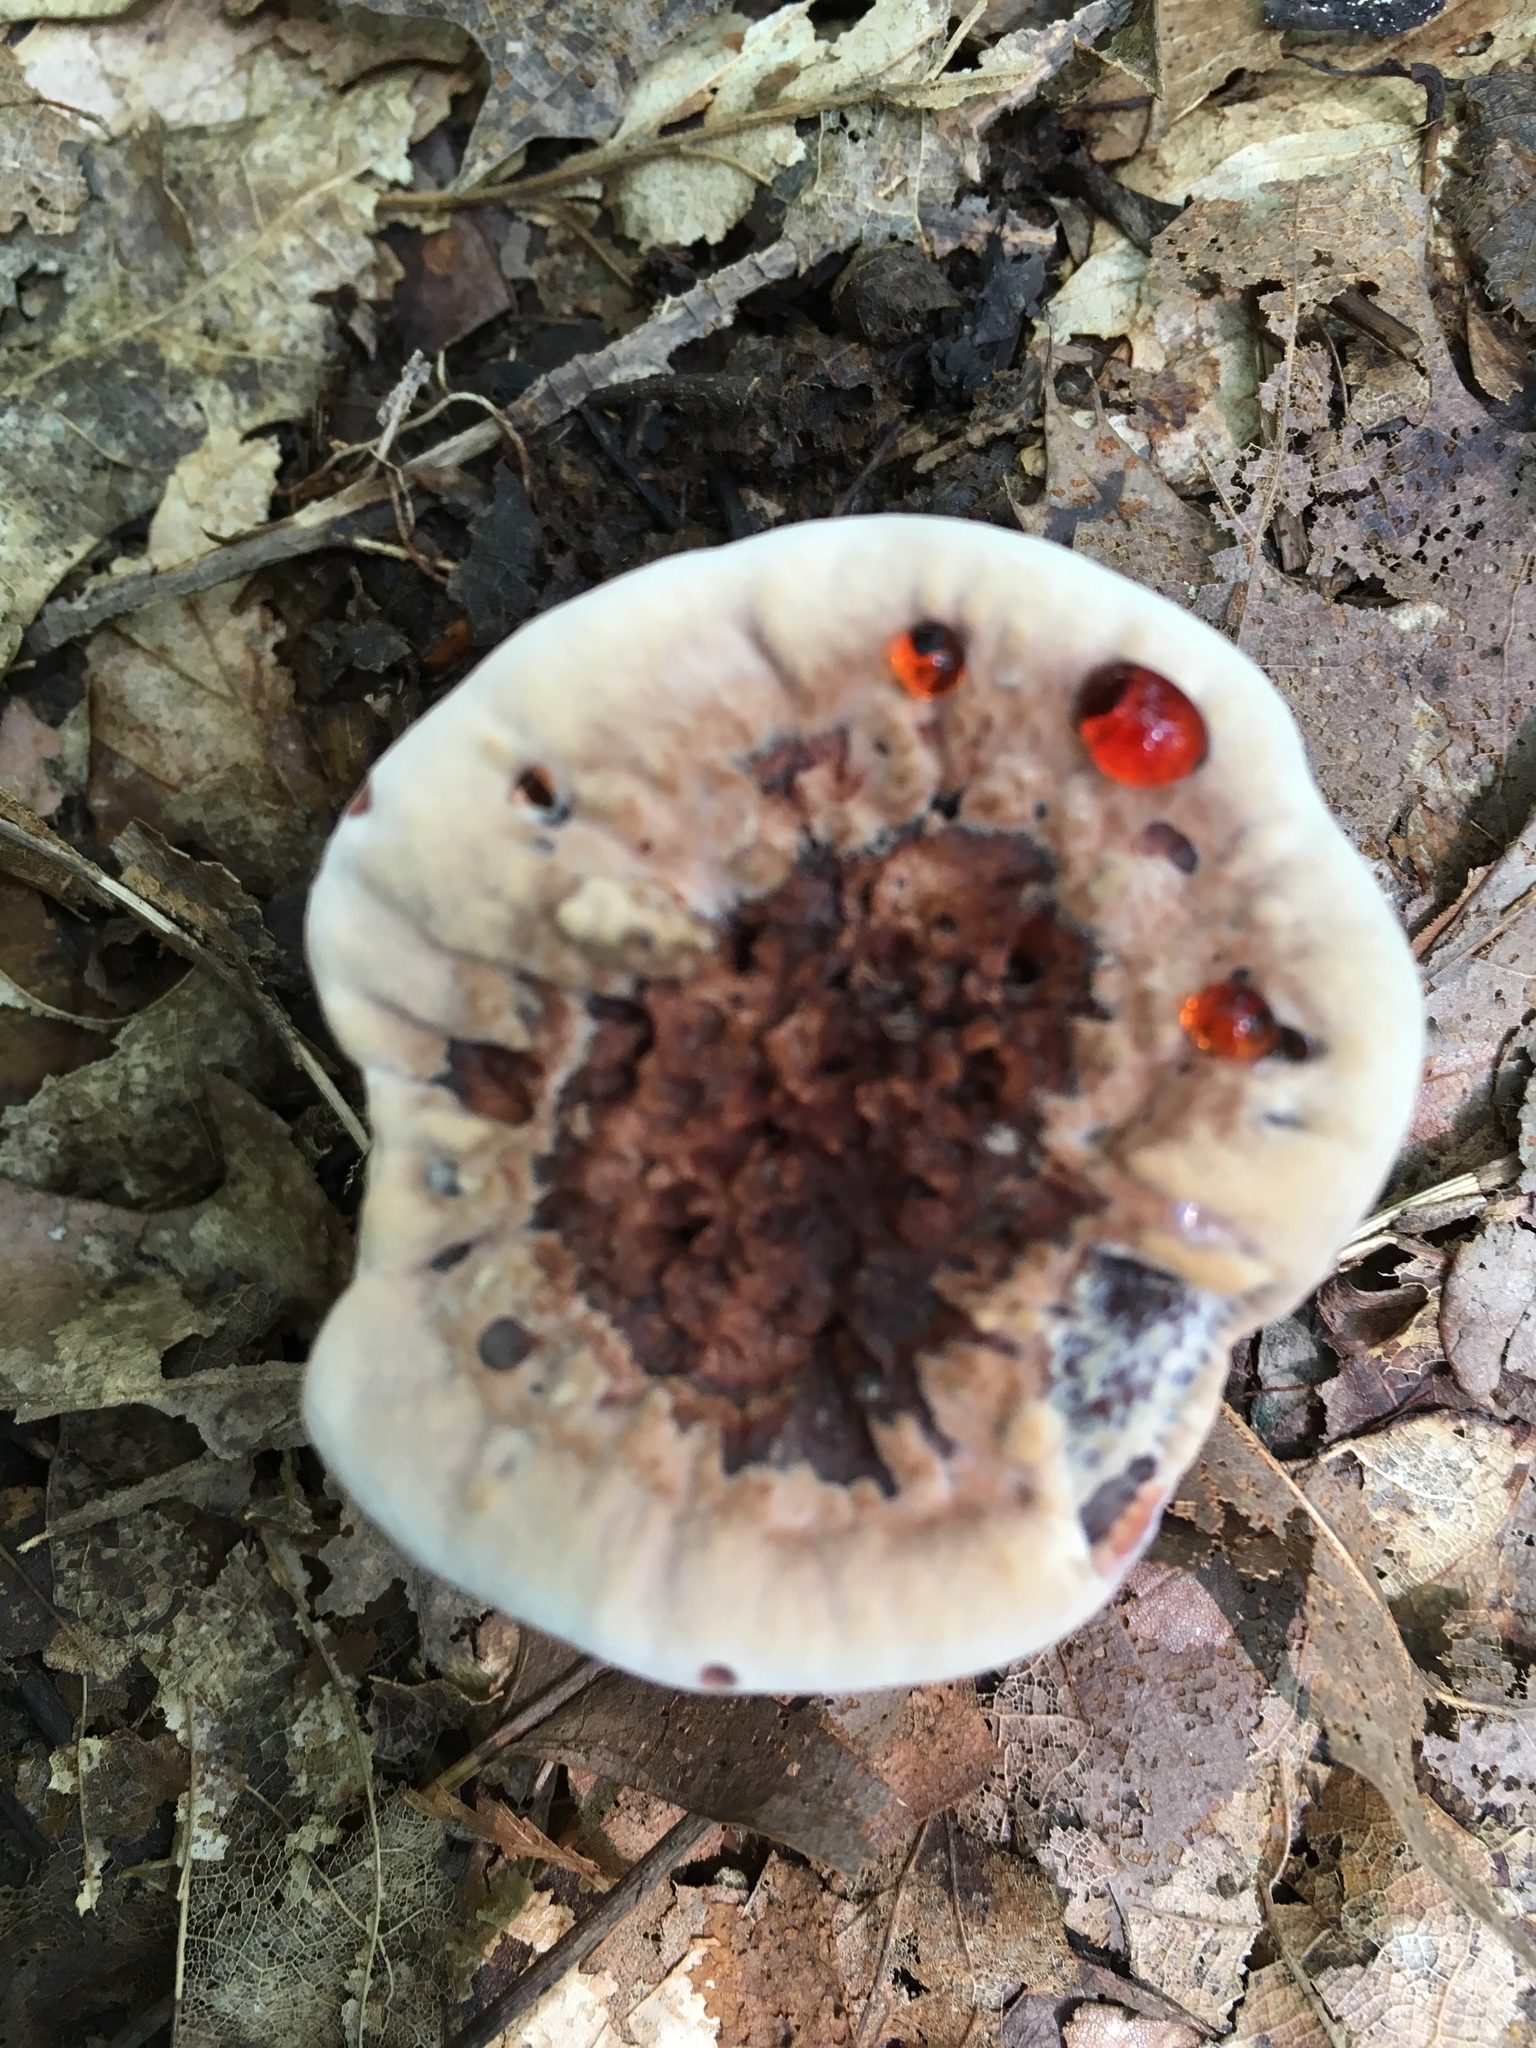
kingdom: Fungi
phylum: Basidiomycota
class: Agaricomycetes
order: Thelephorales
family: Bankeraceae
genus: Hydnellum
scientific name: Hydnellum scrobiculatum
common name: Ridged tooth
